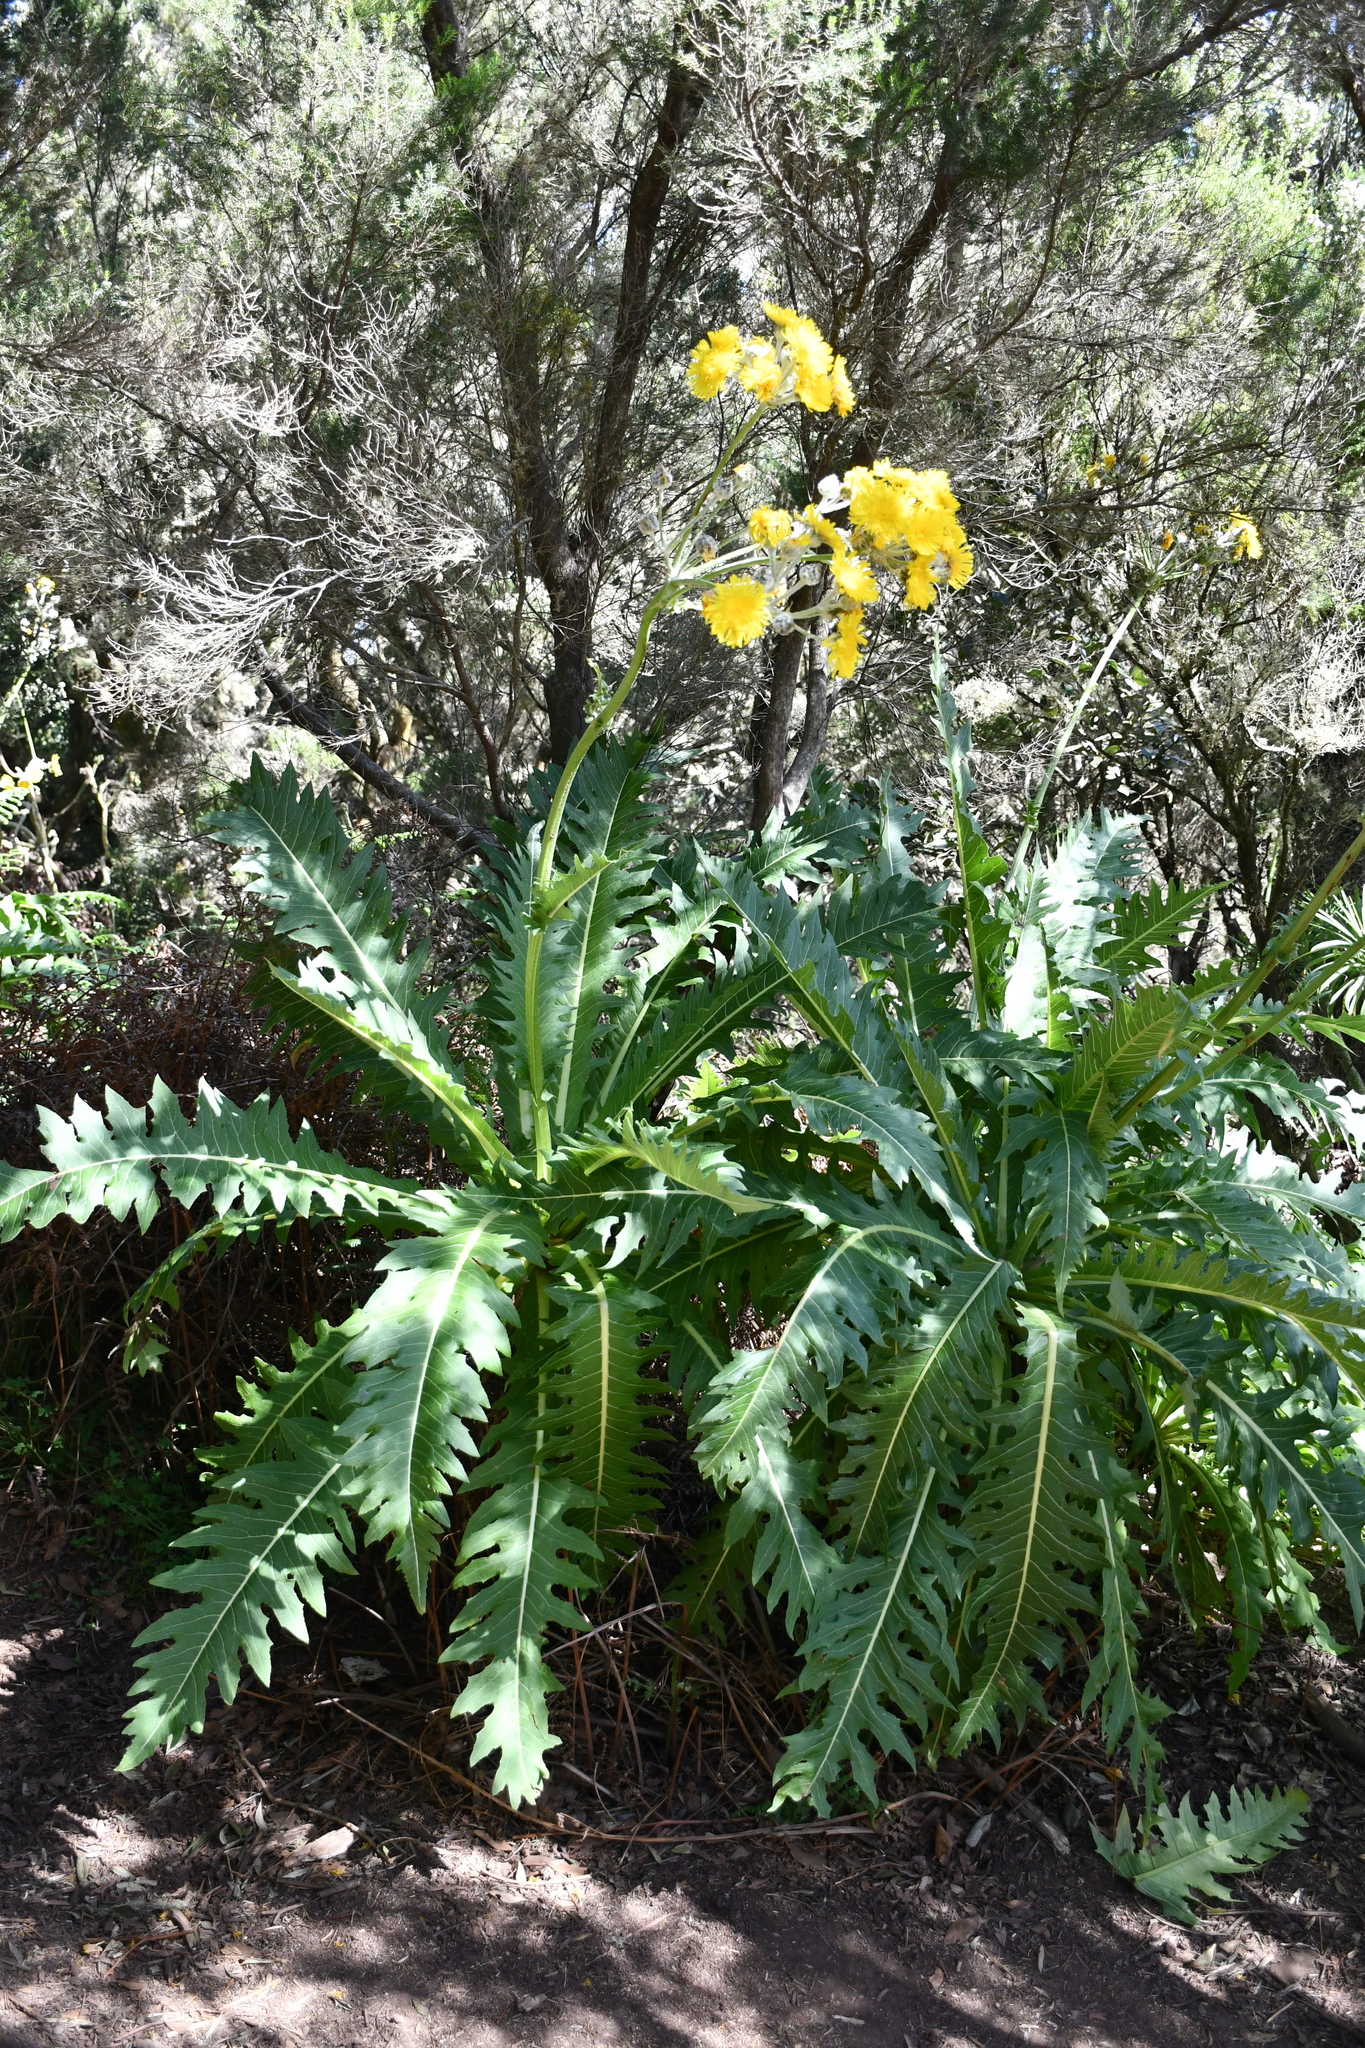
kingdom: Plantae
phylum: Tracheophyta
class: Magnoliopsida
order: Asterales
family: Asteraceae
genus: Sonchus
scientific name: Sonchus congestus
